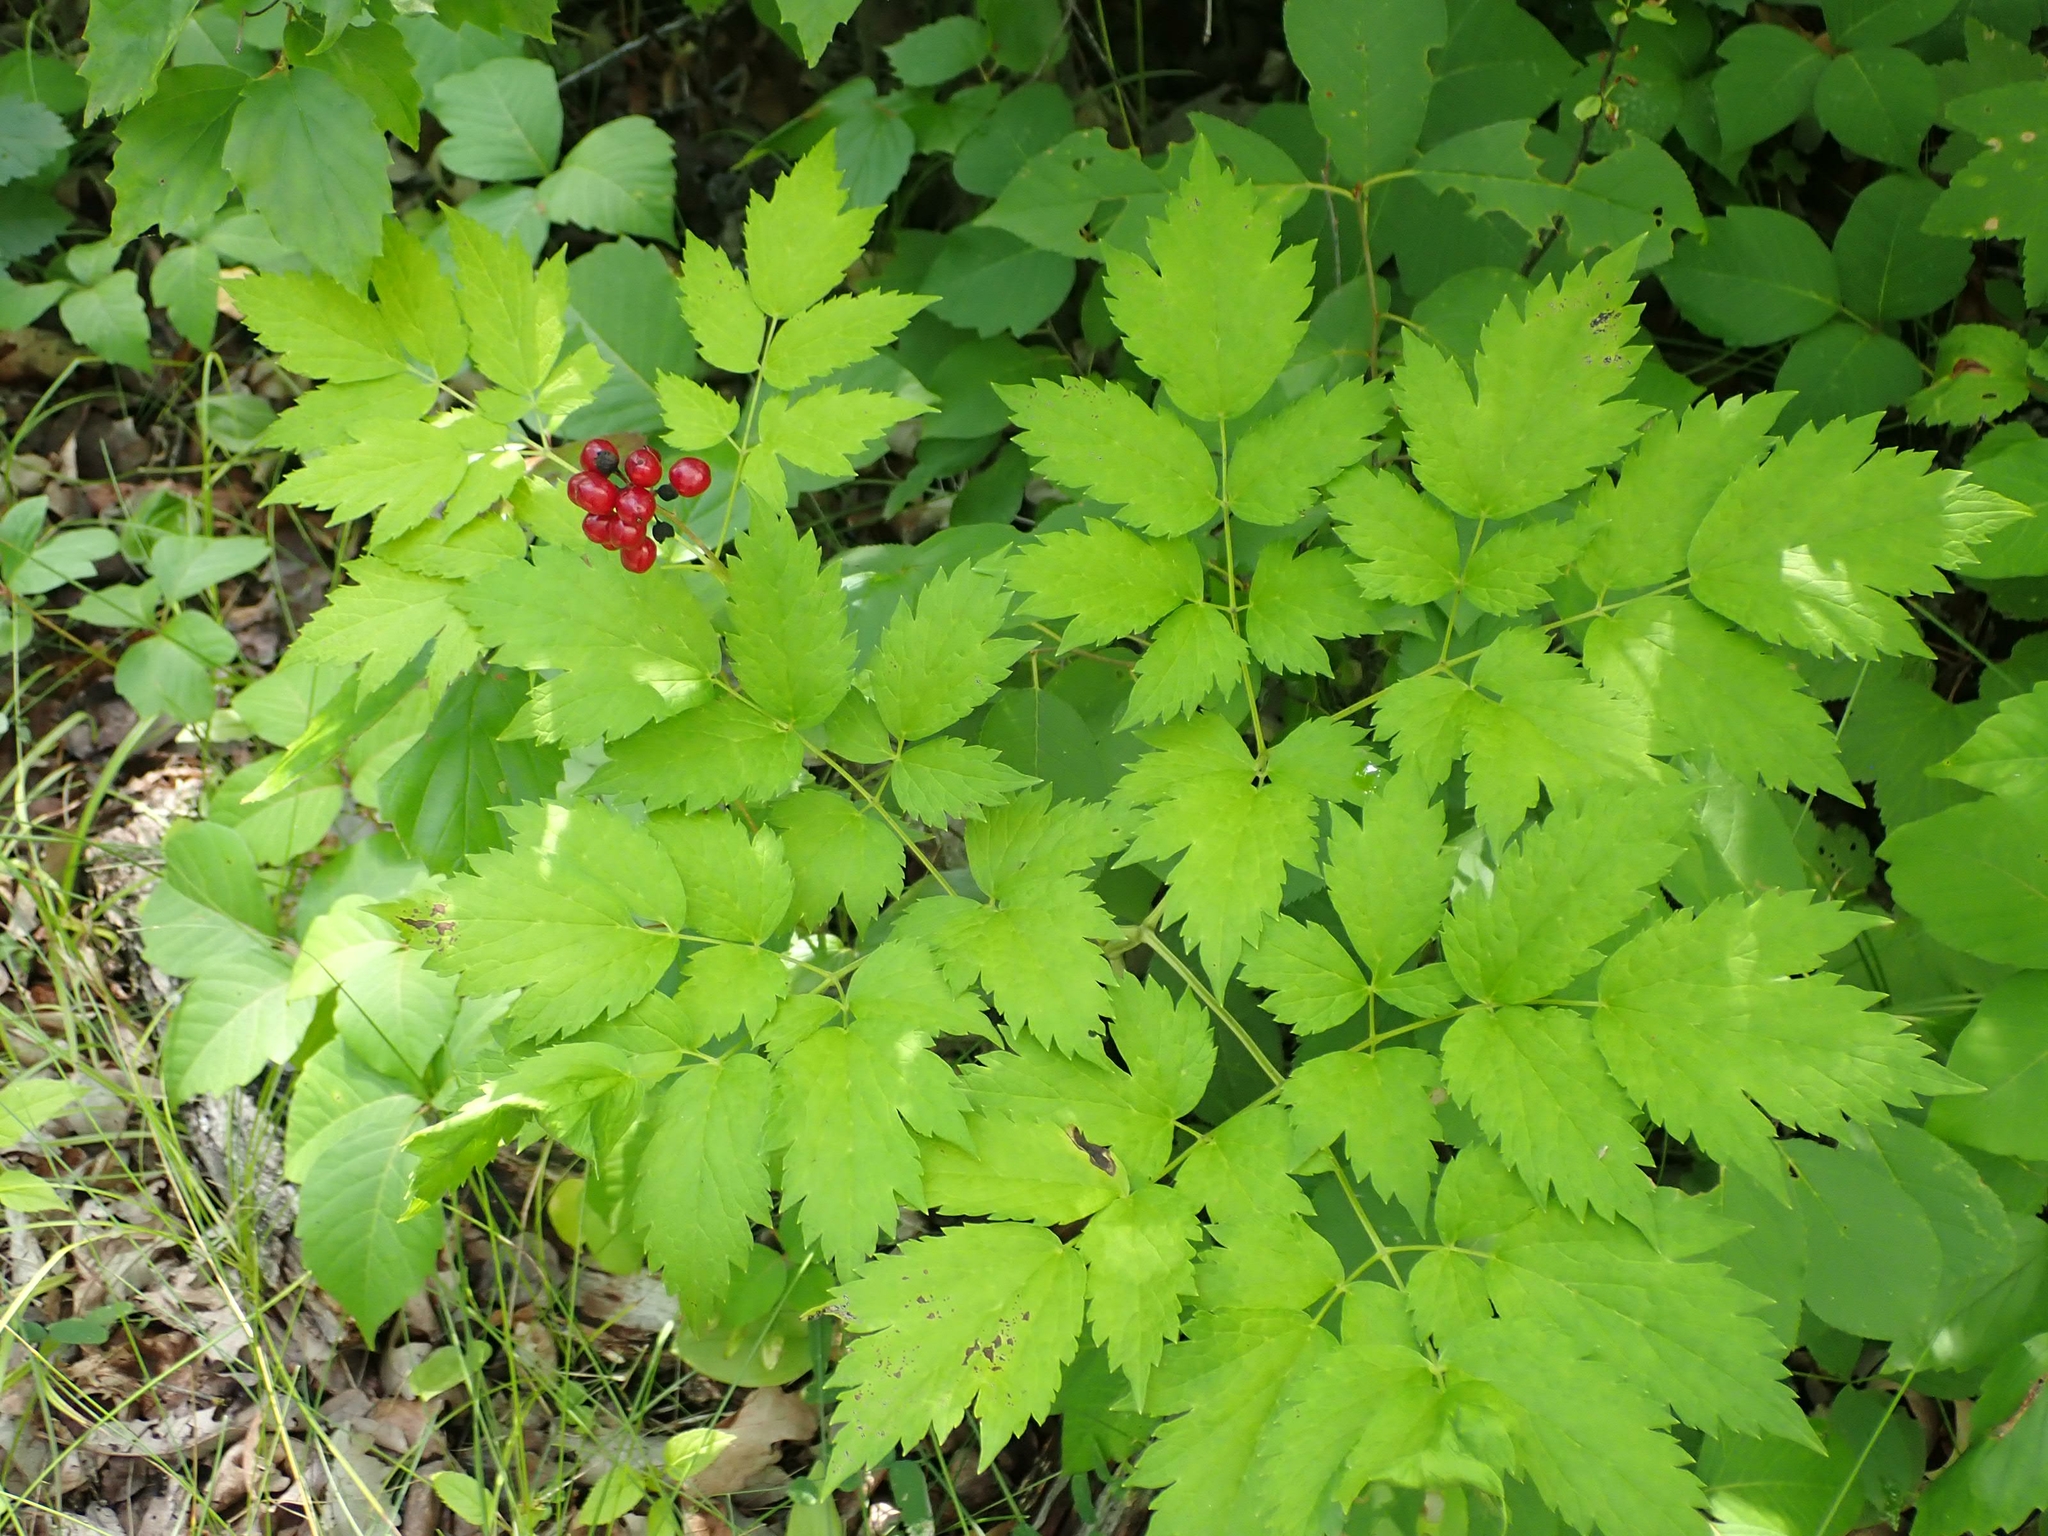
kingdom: Plantae
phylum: Tracheophyta
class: Magnoliopsida
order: Ranunculales
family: Ranunculaceae
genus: Actaea
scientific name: Actaea rubra
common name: Red baneberry
